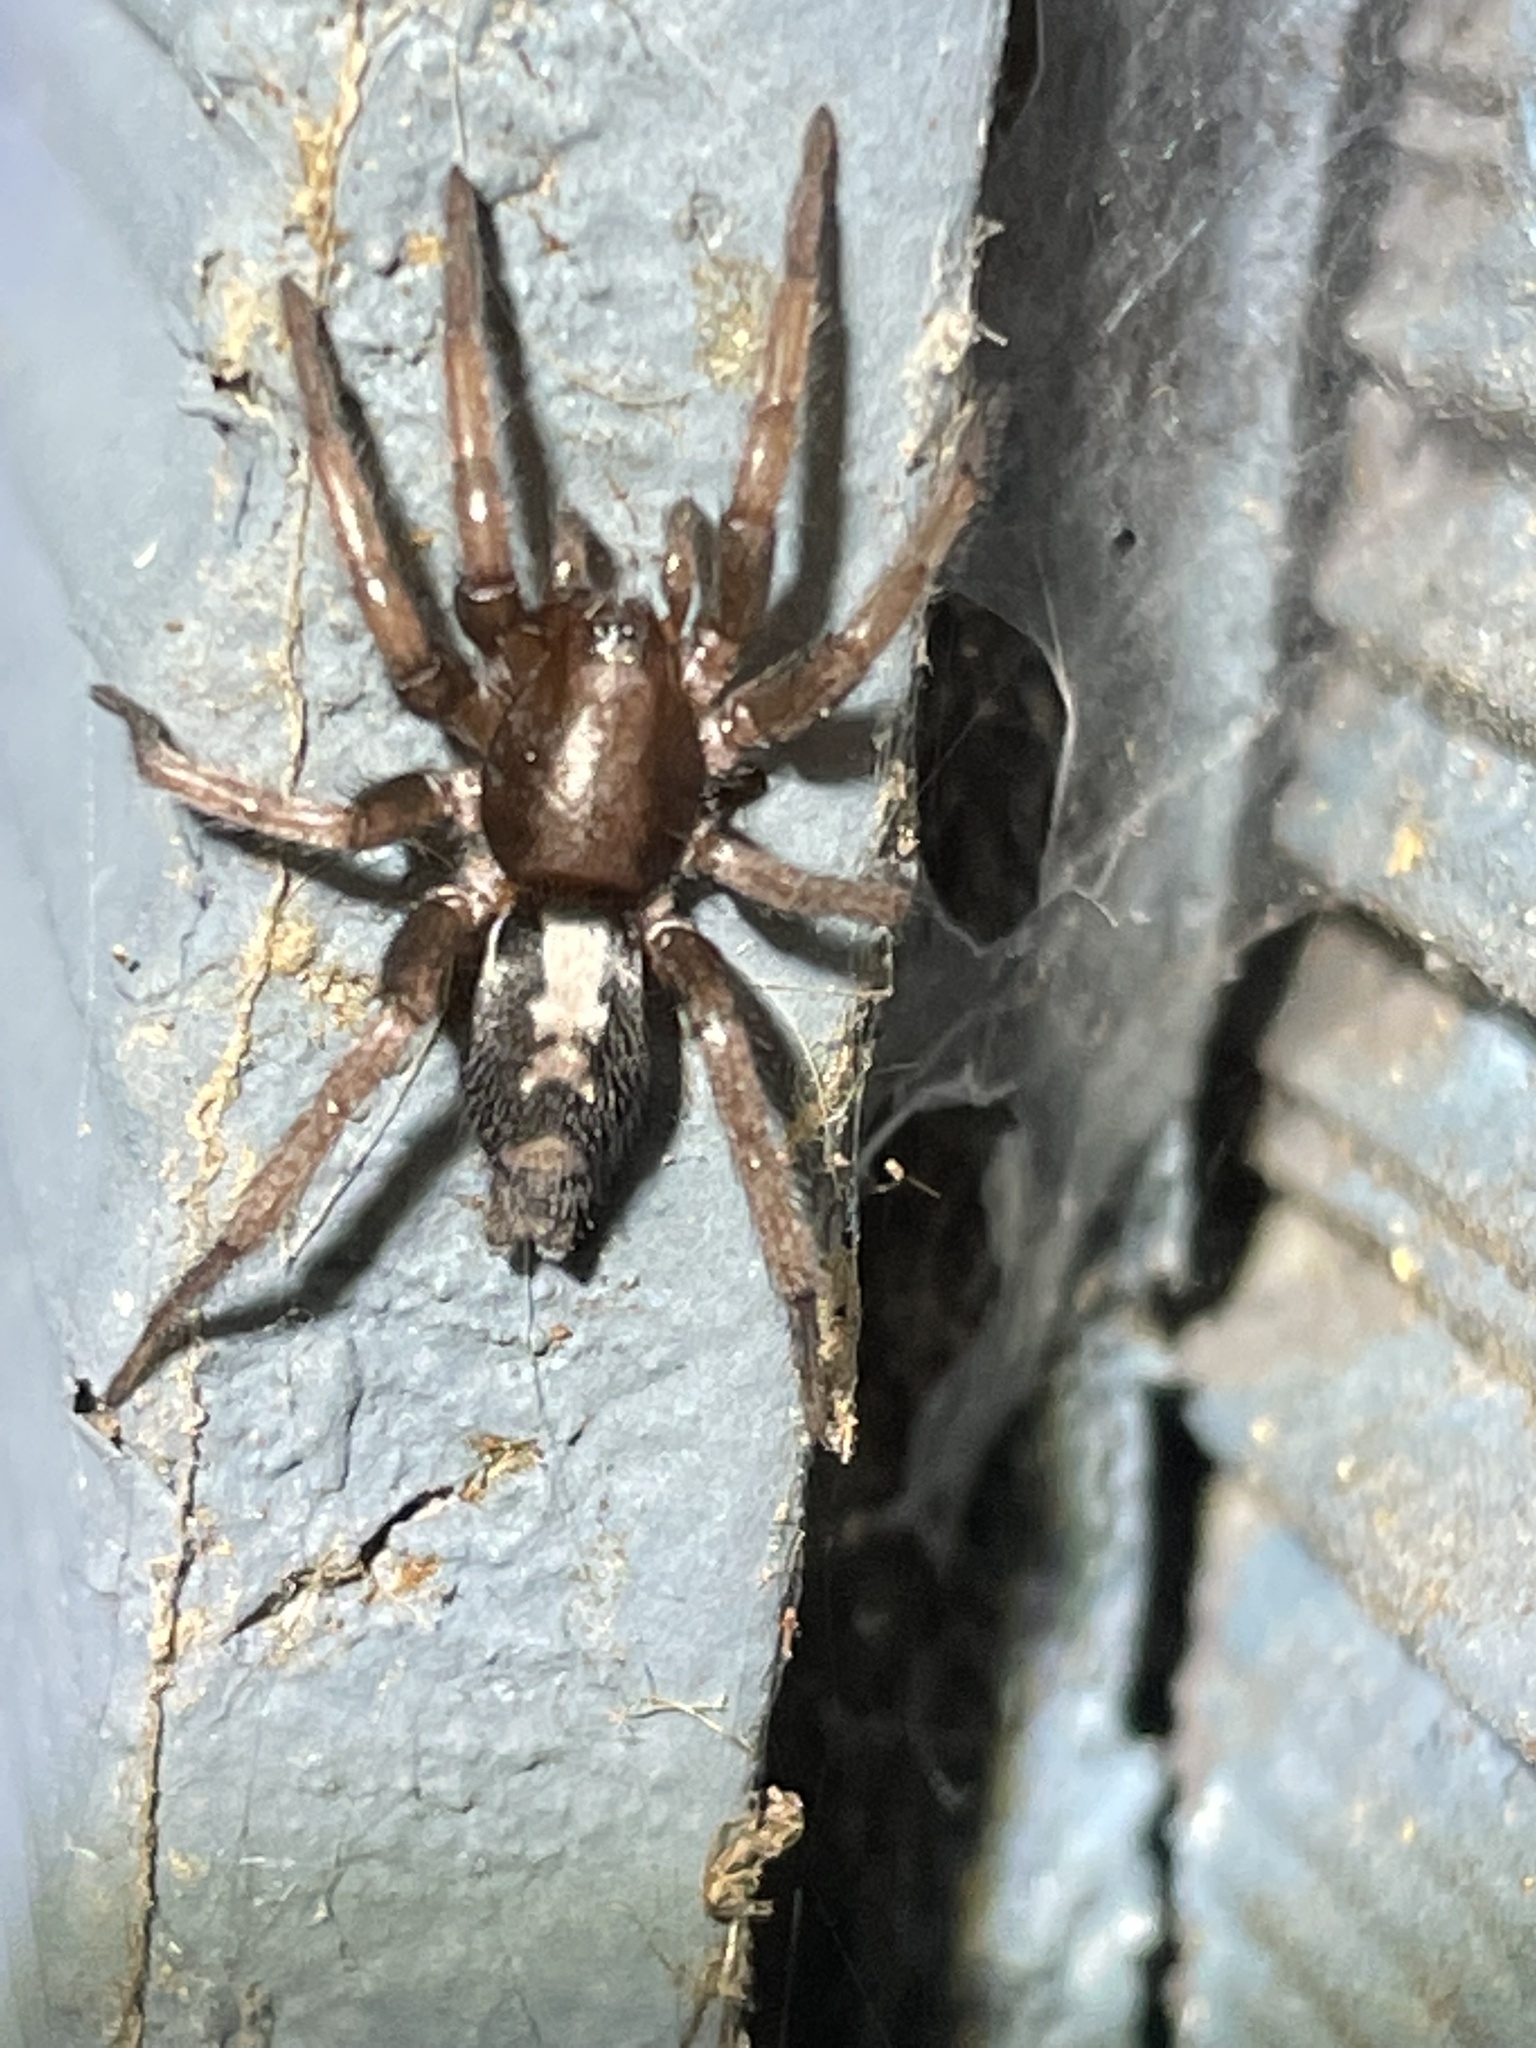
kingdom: Animalia
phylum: Arthropoda
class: Arachnida
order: Araneae
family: Gnaphosidae
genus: Herpyllus
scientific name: Herpyllus ecclesiasticus
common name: Eastern parson spider
